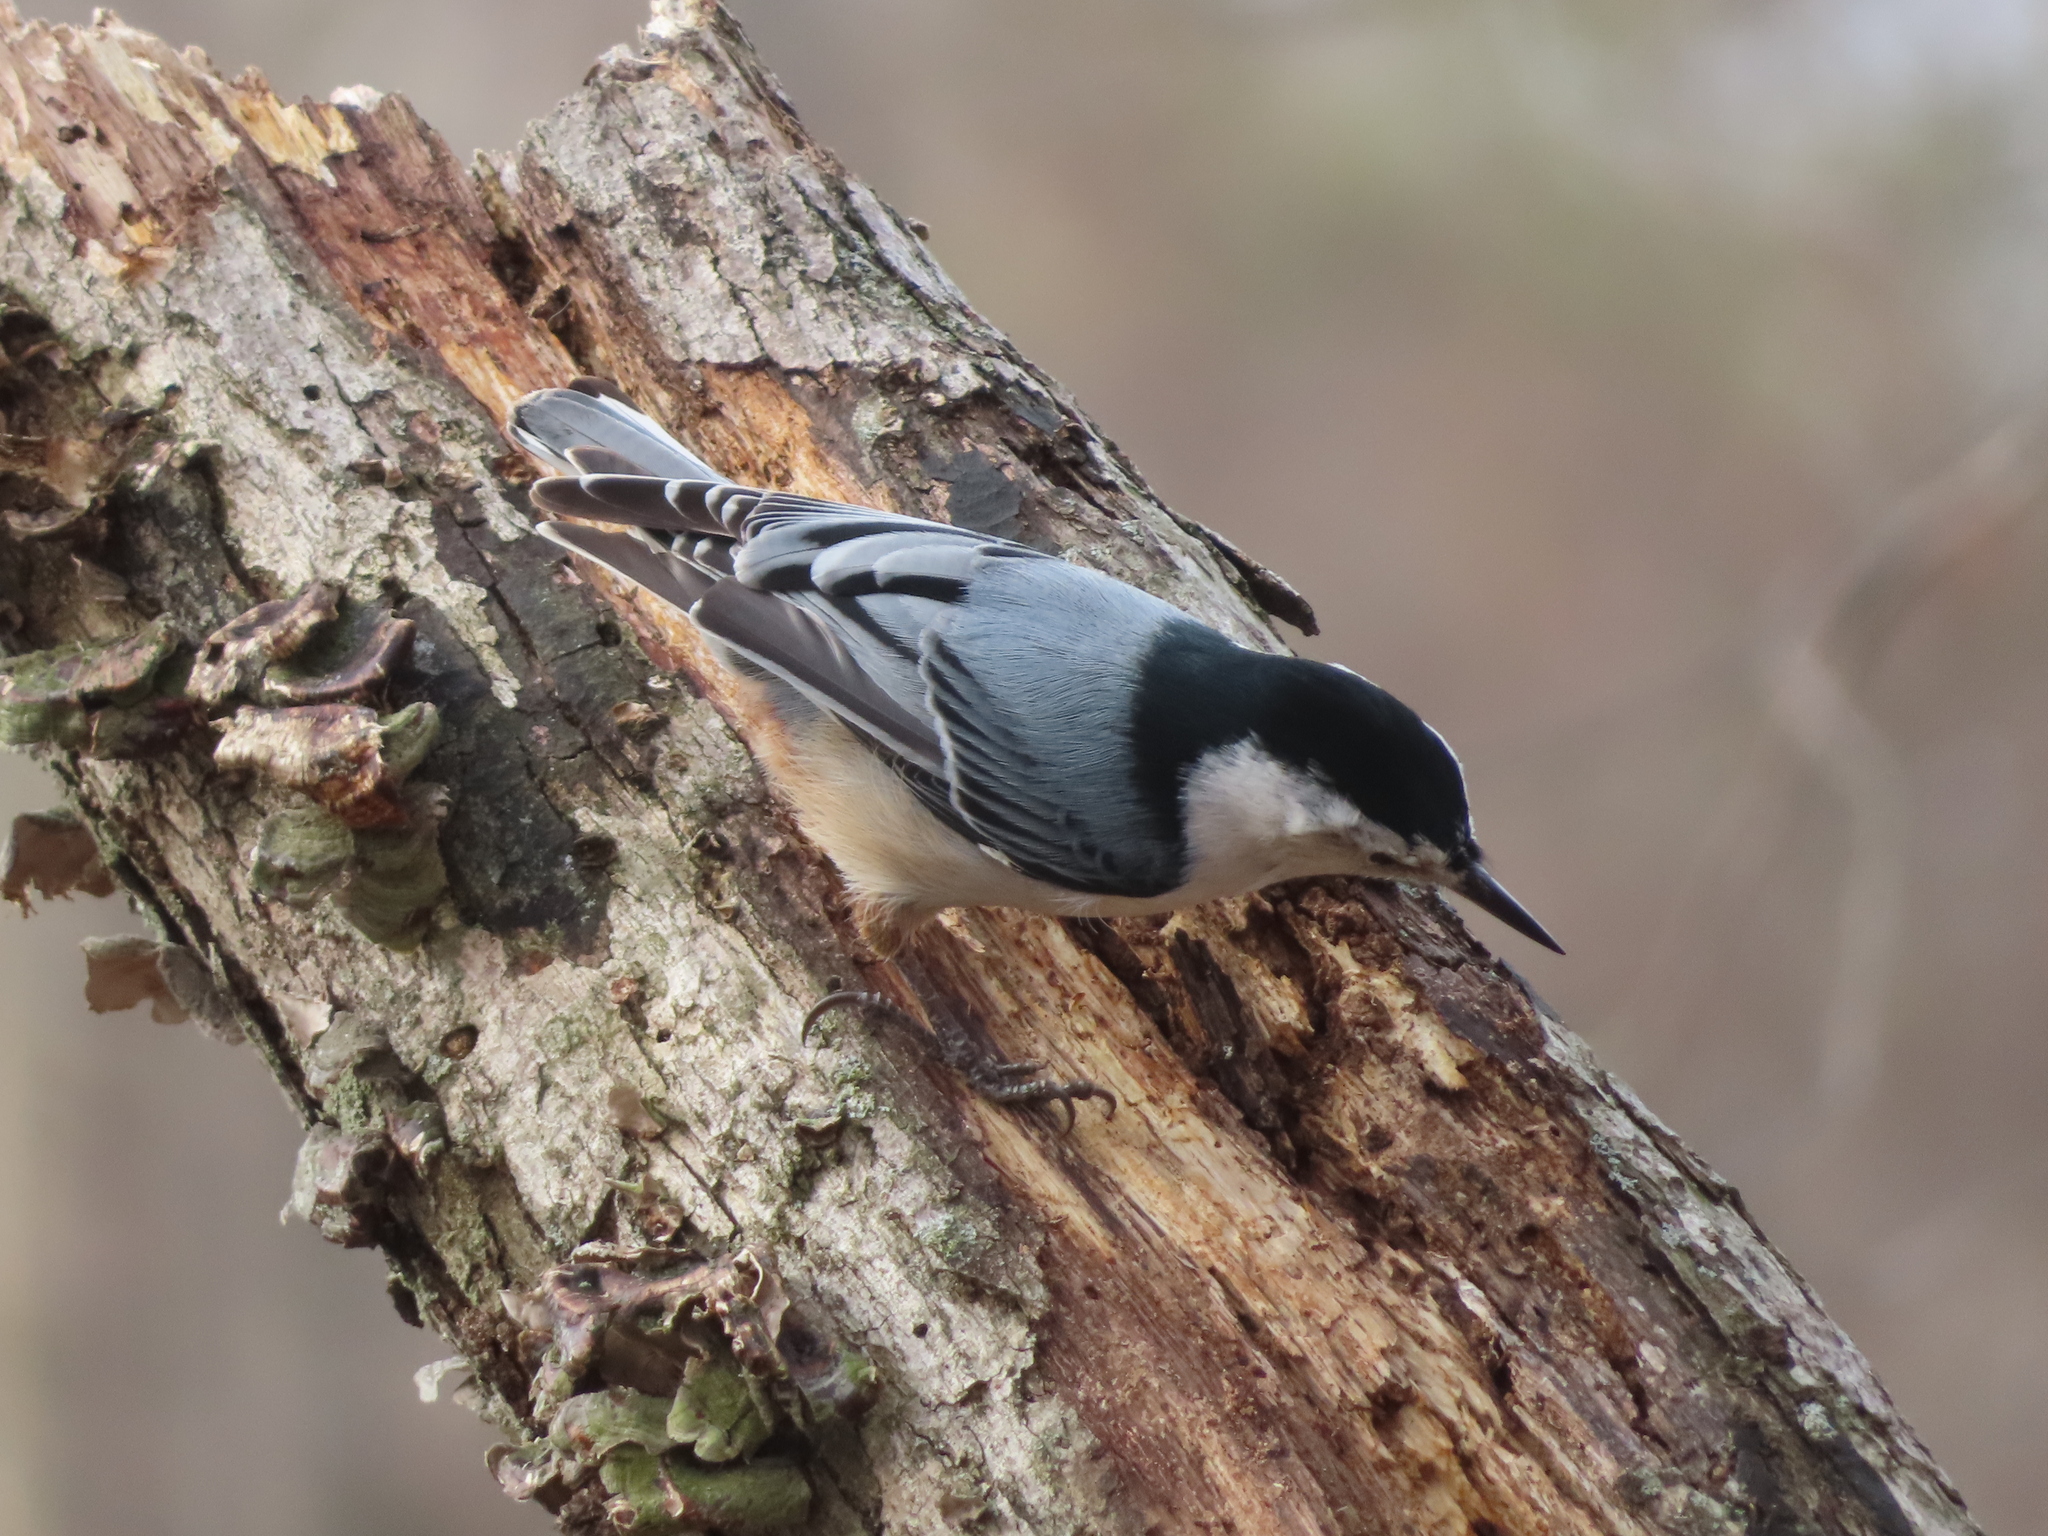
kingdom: Animalia
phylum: Chordata
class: Aves
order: Passeriformes
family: Sittidae
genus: Sitta
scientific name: Sitta carolinensis
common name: White-breasted nuthatch
